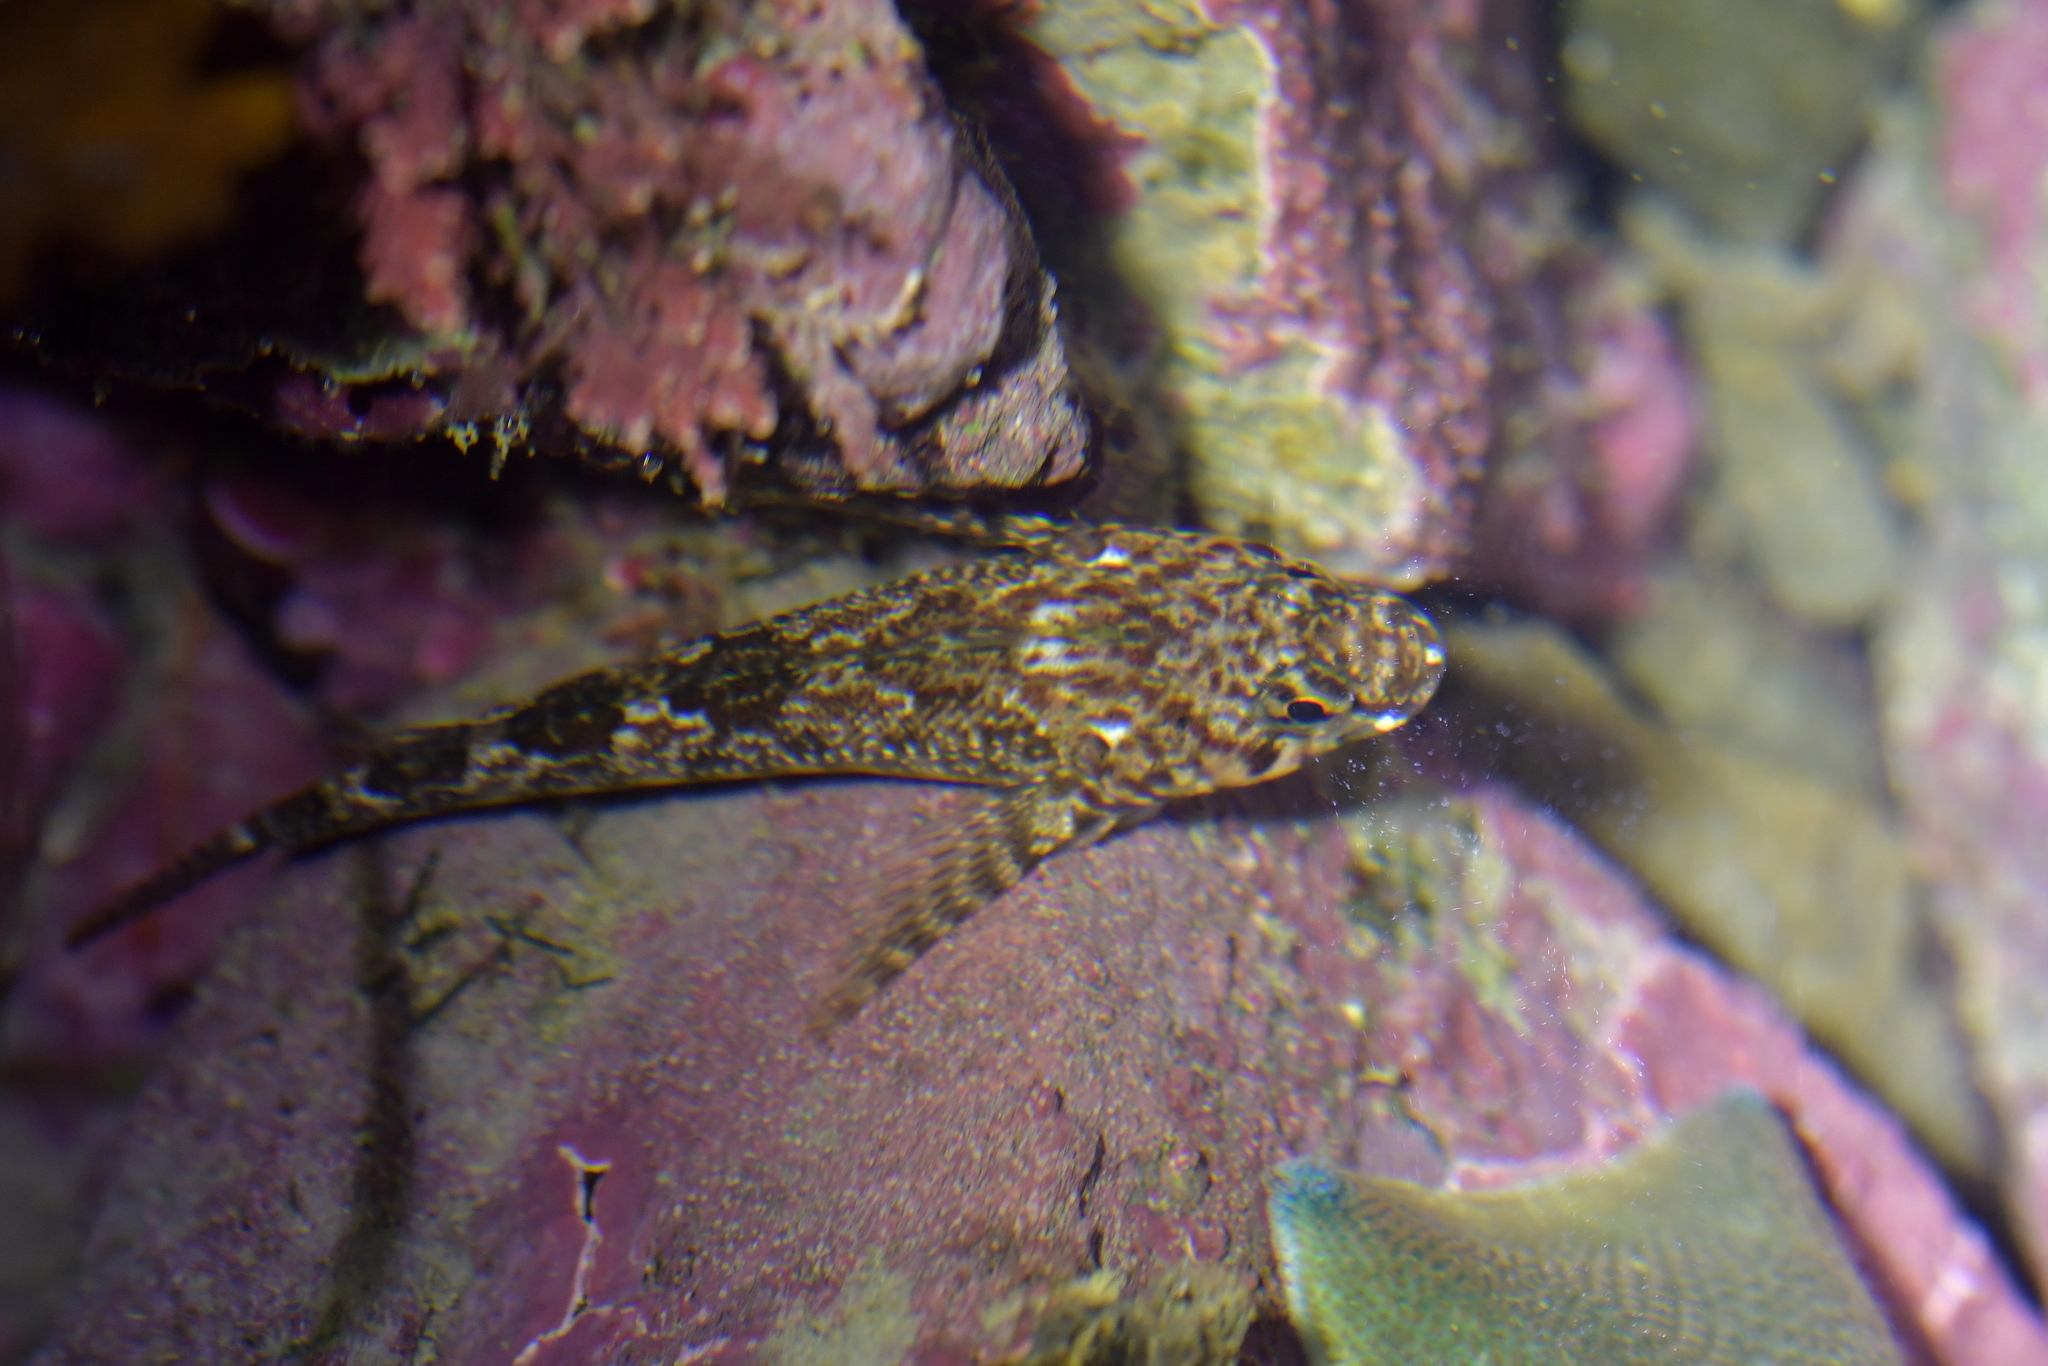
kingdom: Animalia
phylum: Chordata
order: Perciformes
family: Tripterygiidae
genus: Bellapiscis
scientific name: Bellapiscis medius
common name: Twister
